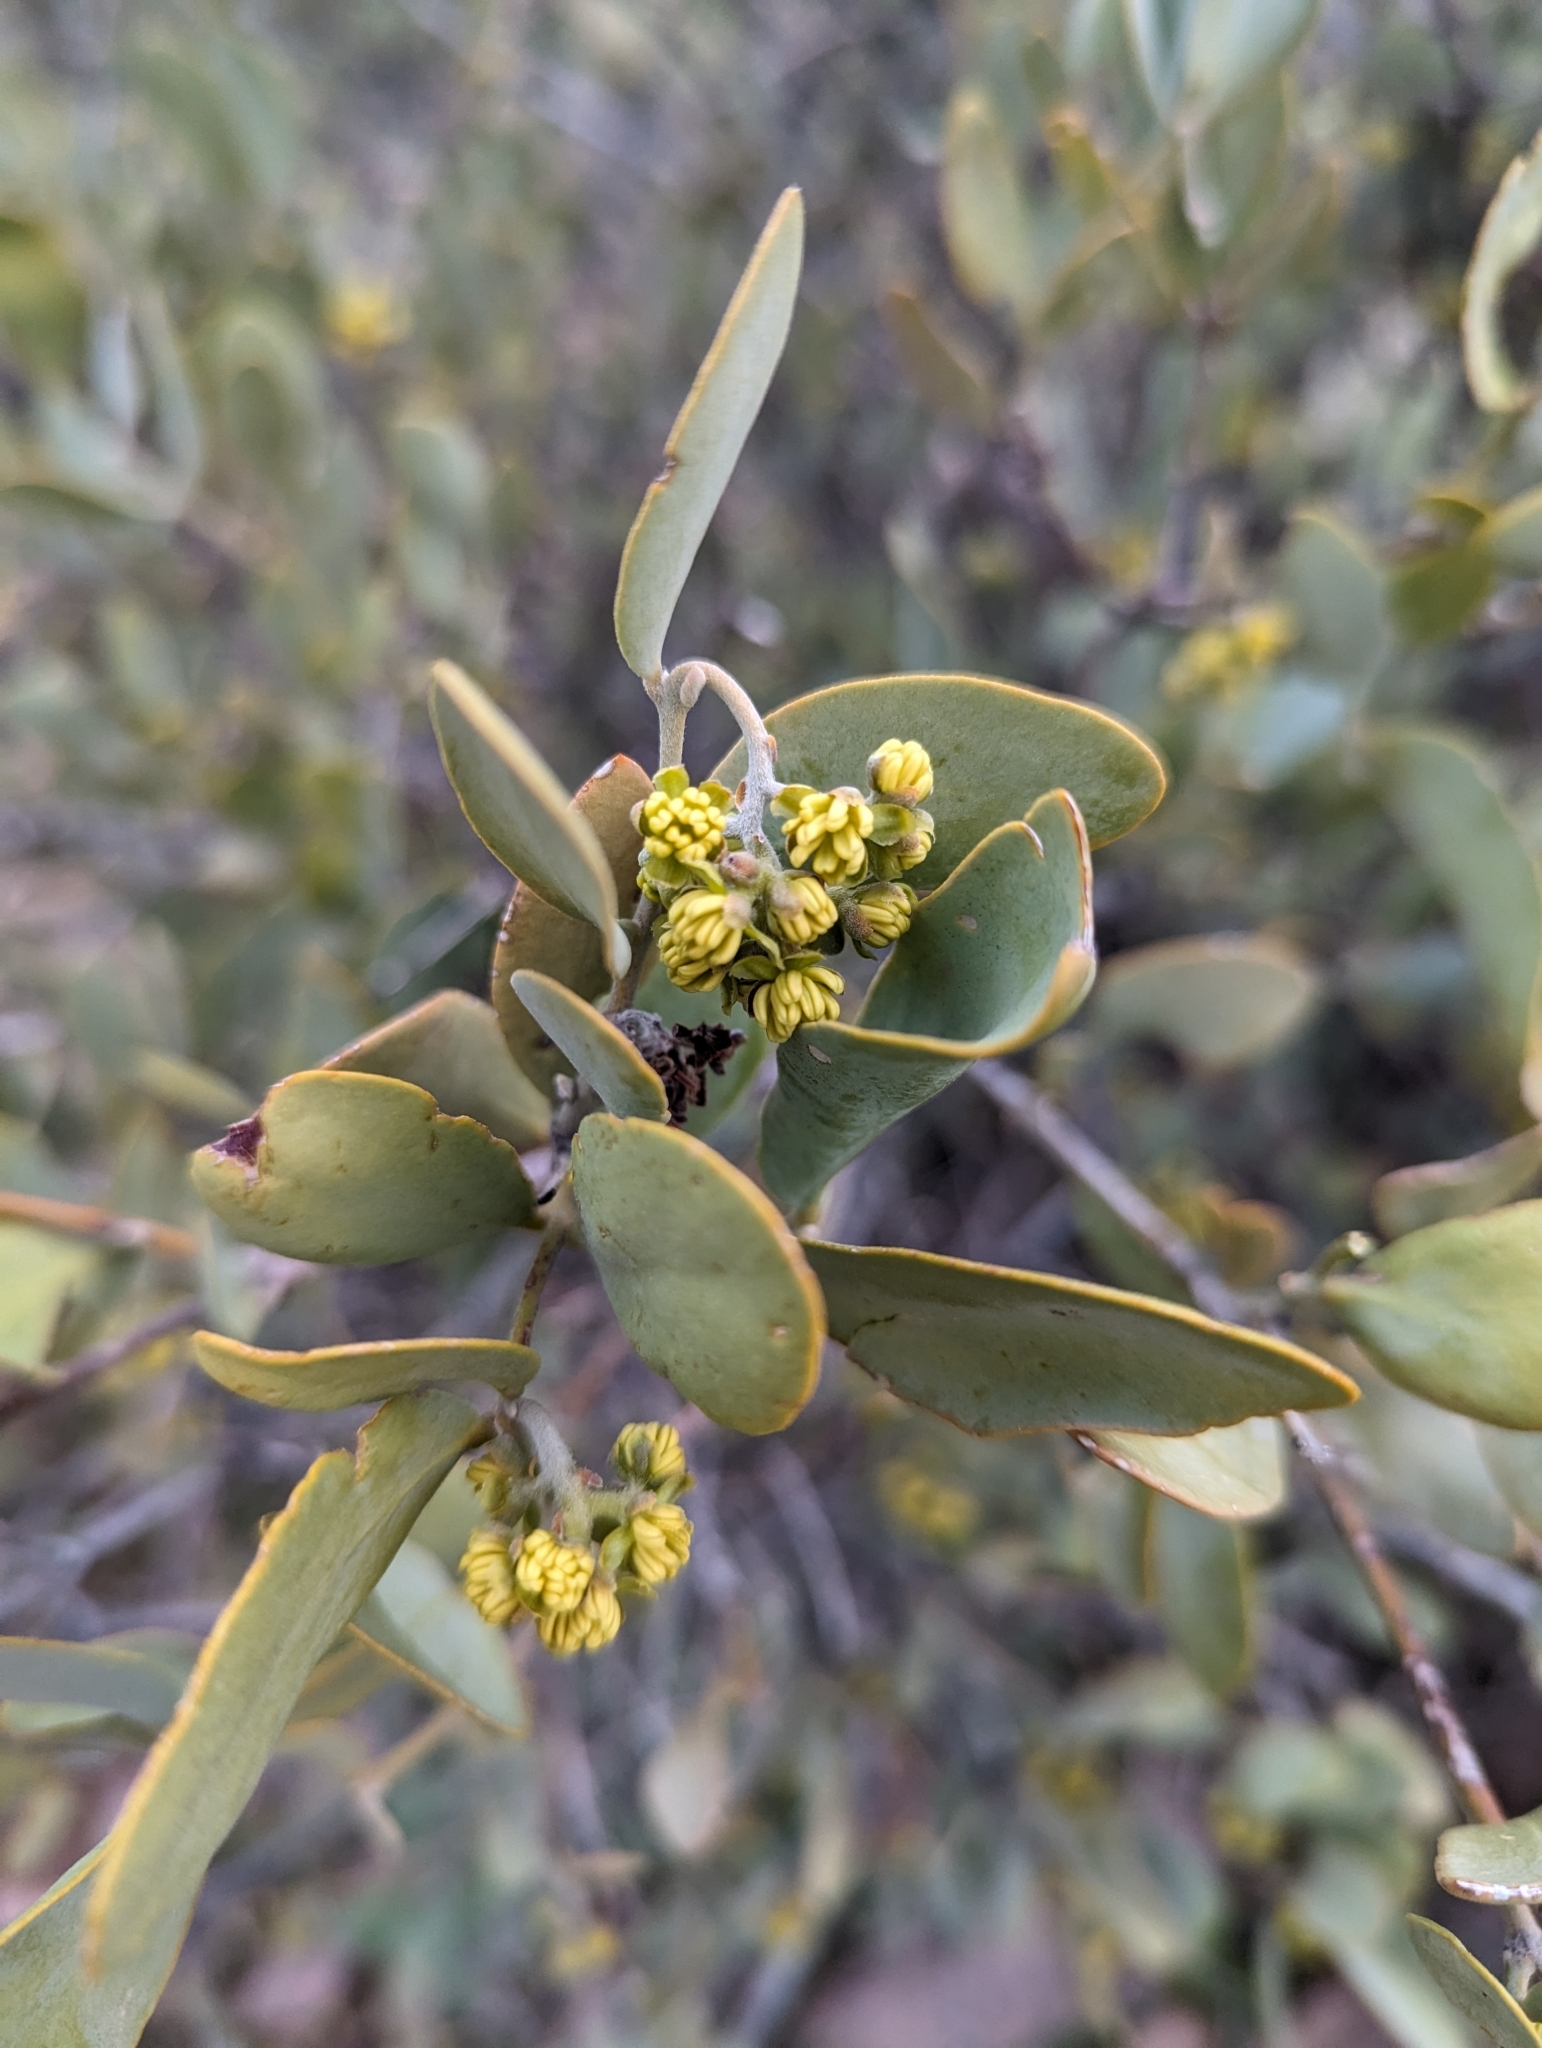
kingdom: Plantae
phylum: Tracheophyta
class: Magnoliopsida
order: Caryophyllales
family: Simmondsiaceae
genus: Simmondsia
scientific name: Simmondsia chinensis
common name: Jojoba
